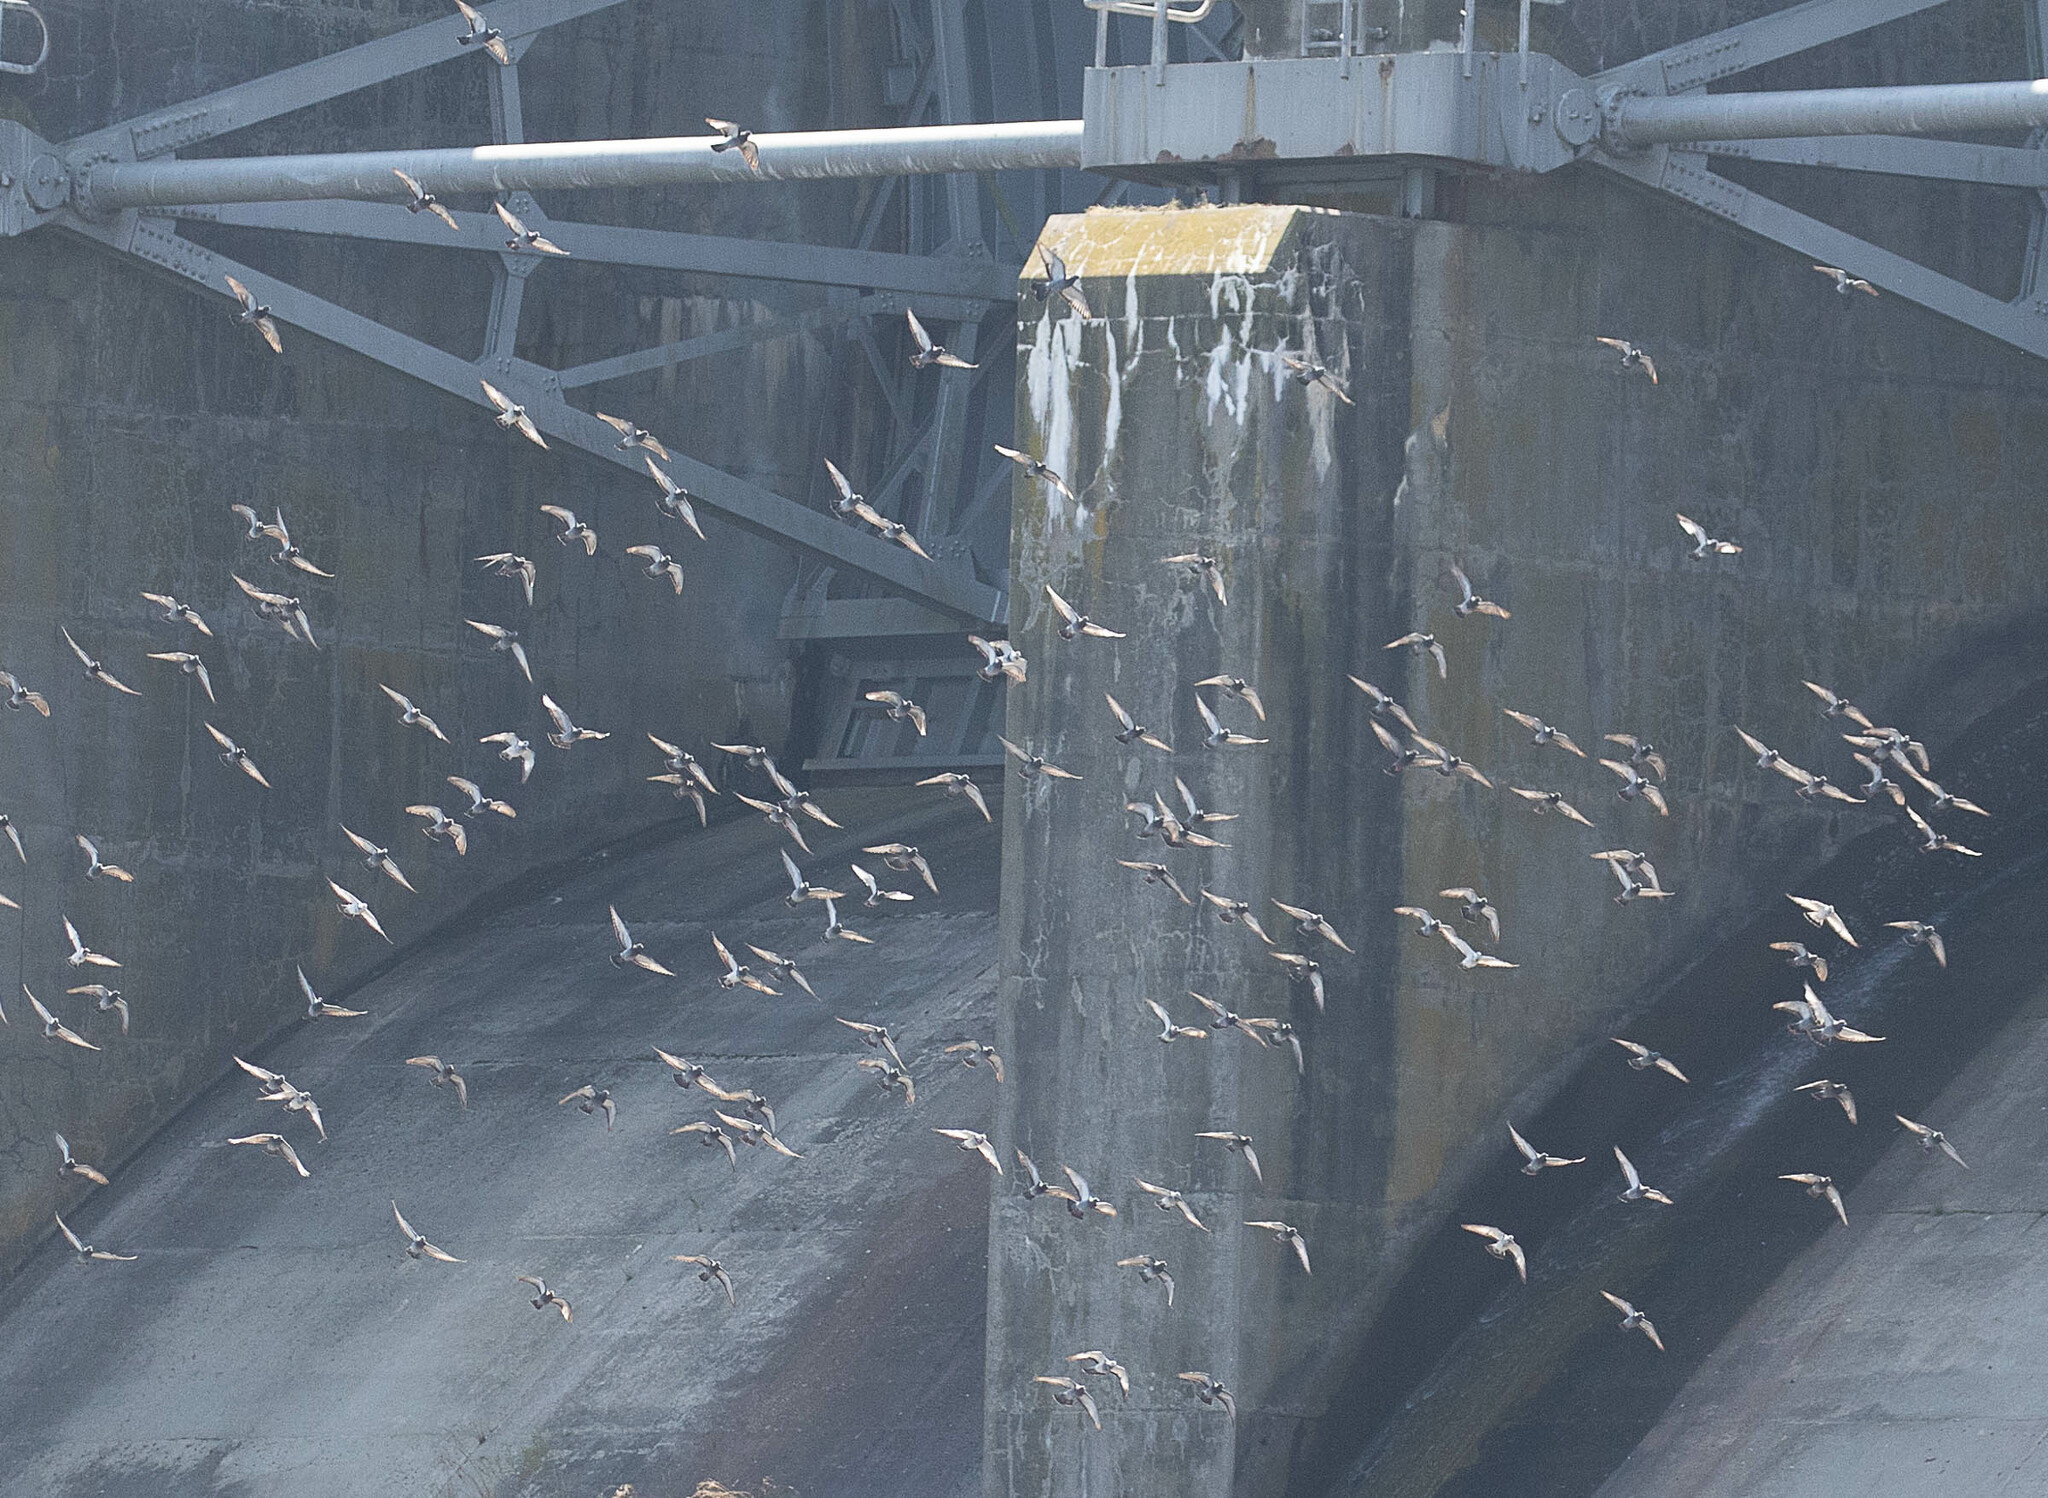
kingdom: Animalia
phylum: Chordata
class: Aves
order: Columbiformes
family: Columbidae
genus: Columba
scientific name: Columba livia
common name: Rock pigeon
